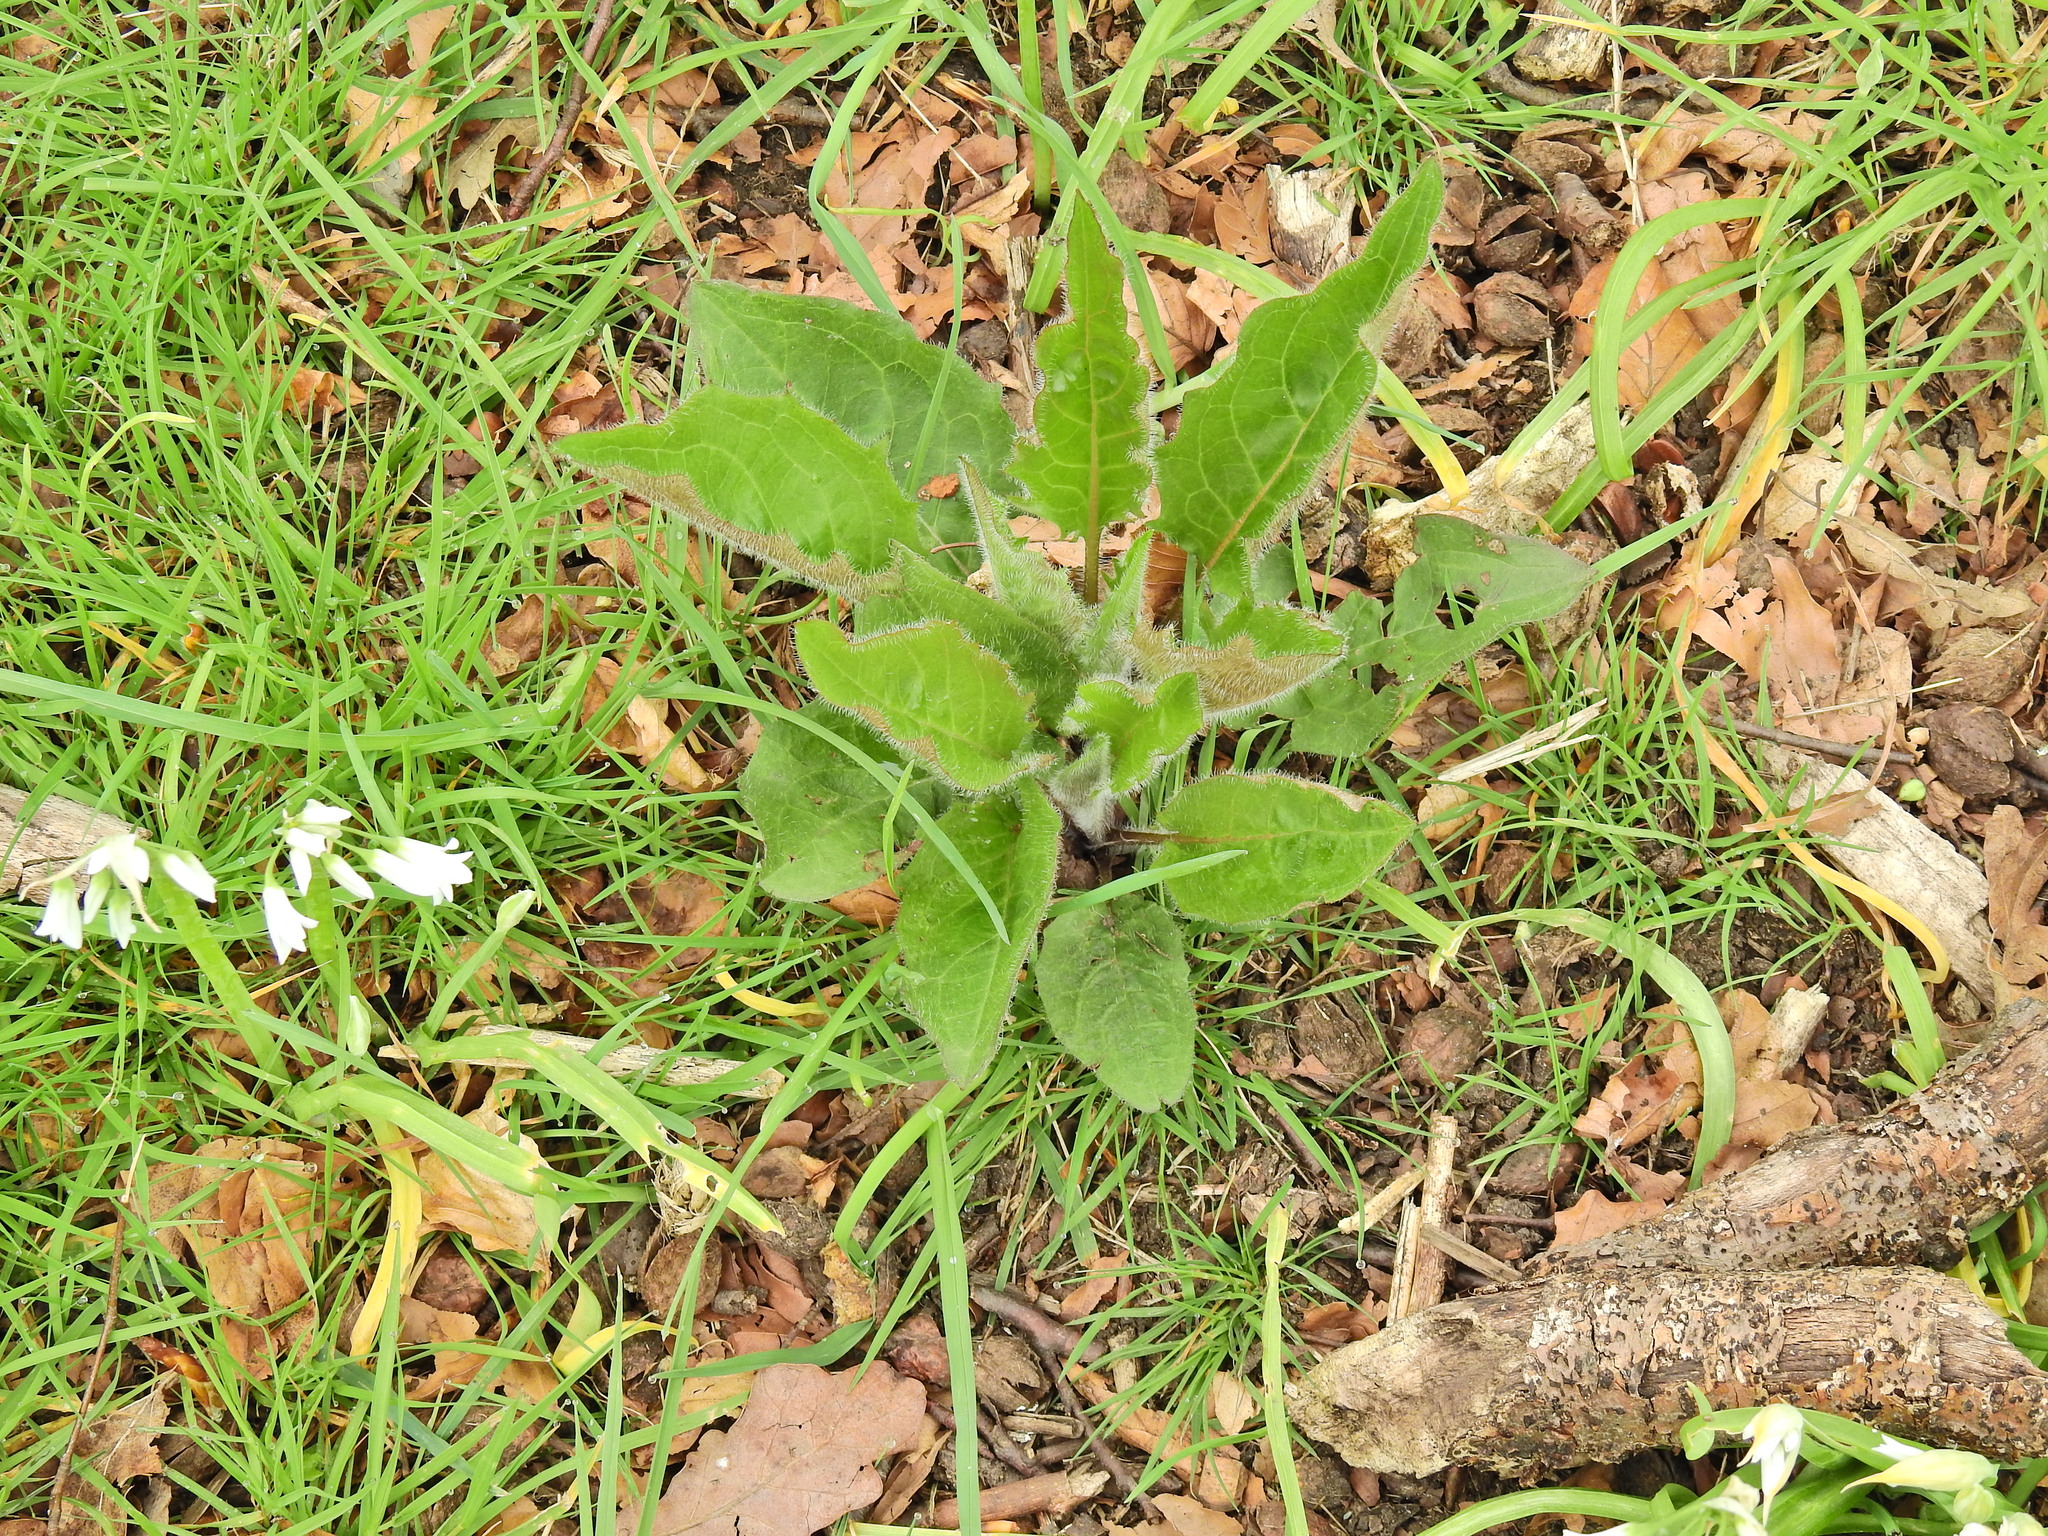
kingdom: Plantae
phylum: Tracheophyta
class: Magnoliopsida
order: Boraginales
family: Boraginaceae
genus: Pentaglottis
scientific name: Pentaglottis sempervirens
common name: Green alkanet
